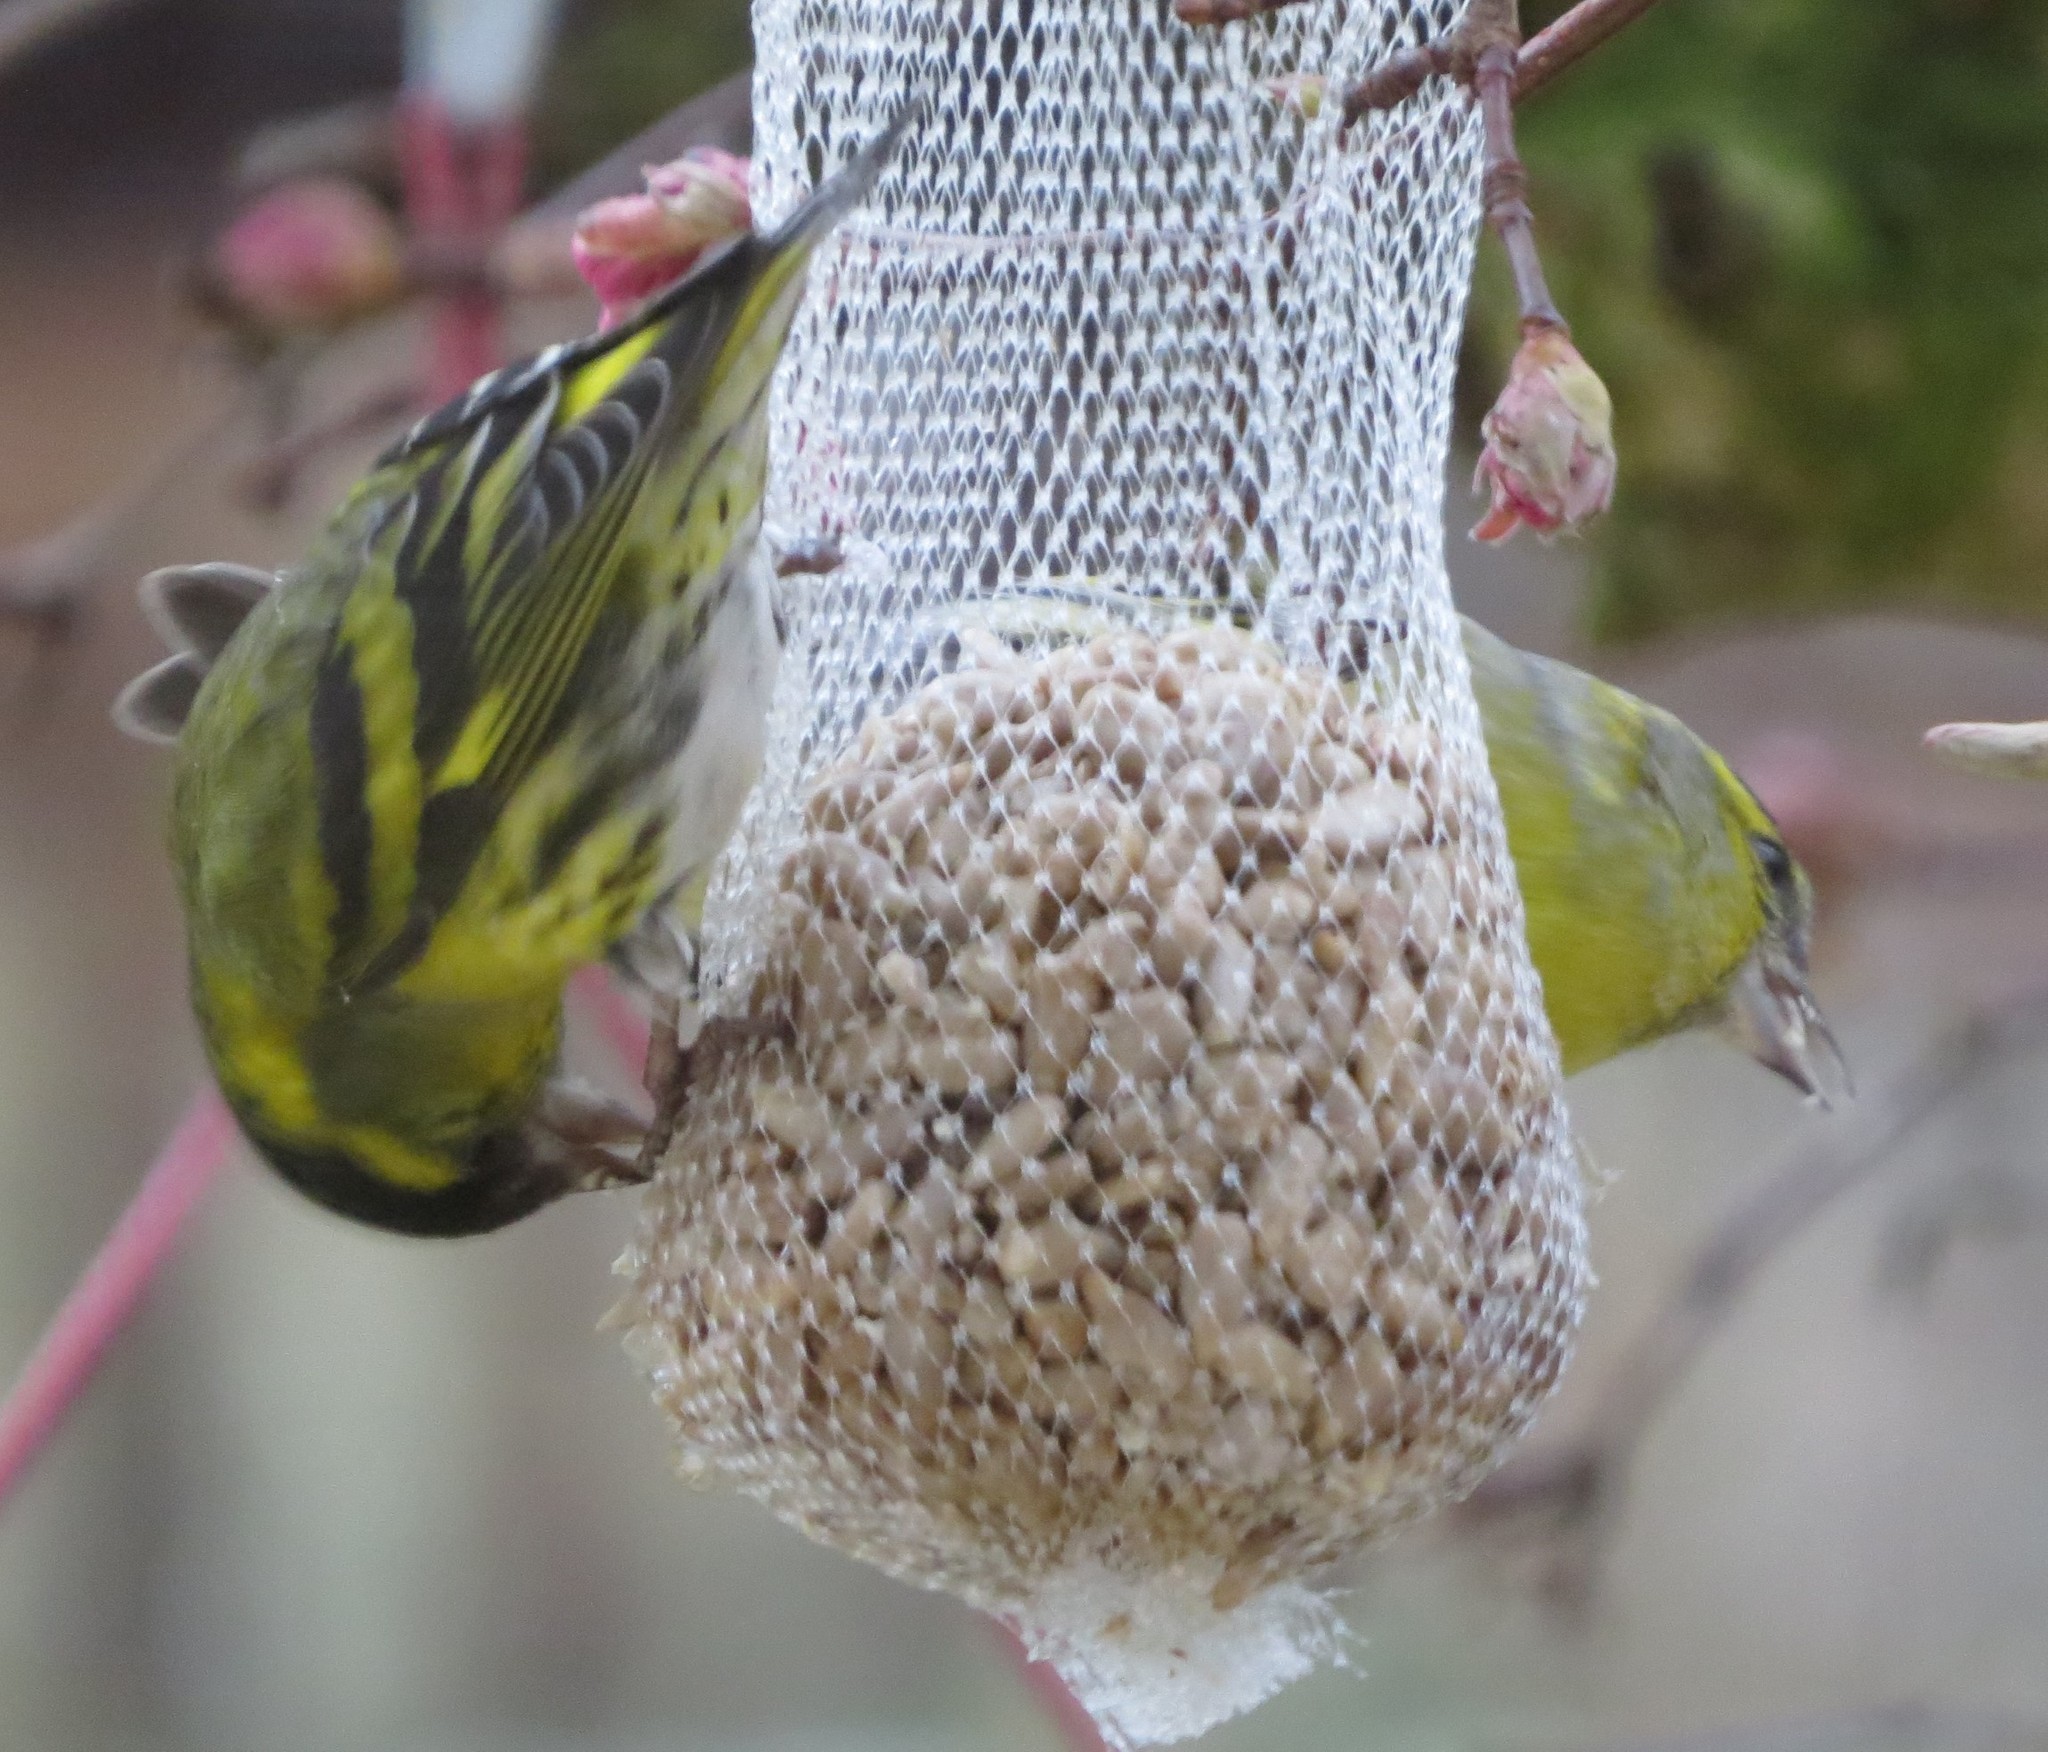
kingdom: Animalia
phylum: Chordata
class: Aves
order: Passeriformes
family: Fringillidae
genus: Spinus
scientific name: Spinus spinus
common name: Eurasian siskin
